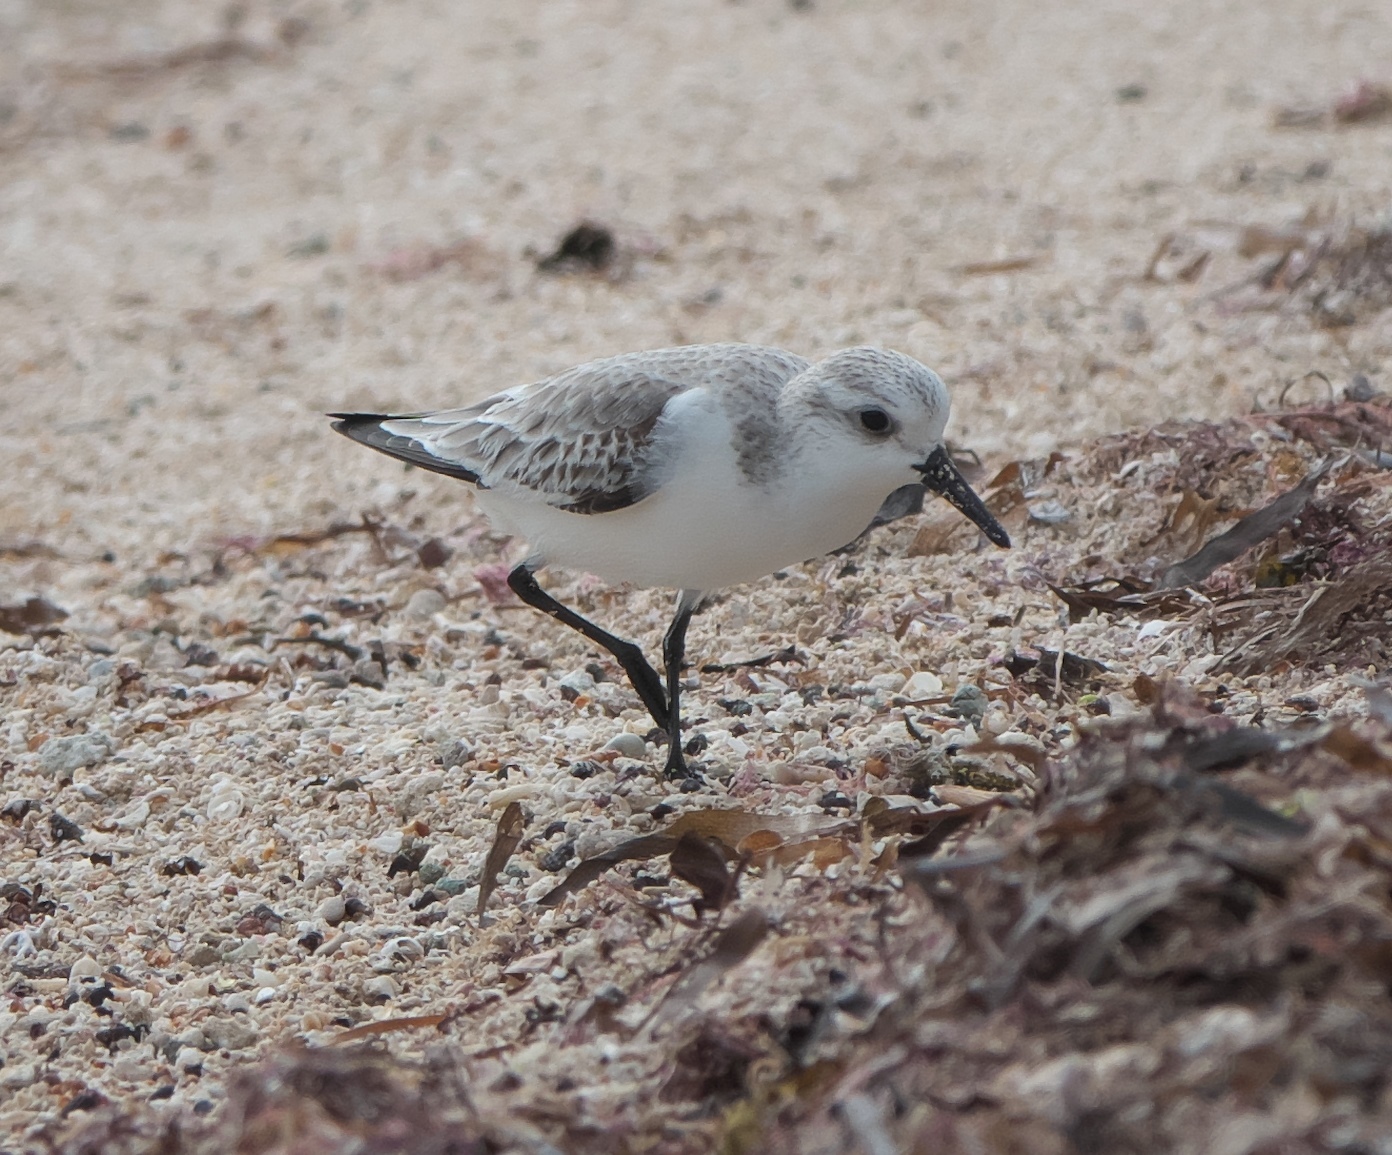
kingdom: Animalia
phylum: Chordata
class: Aves
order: Charadriiformes
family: Scolopacidae
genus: Calidris
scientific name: Calidris alba
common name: Sanderling
